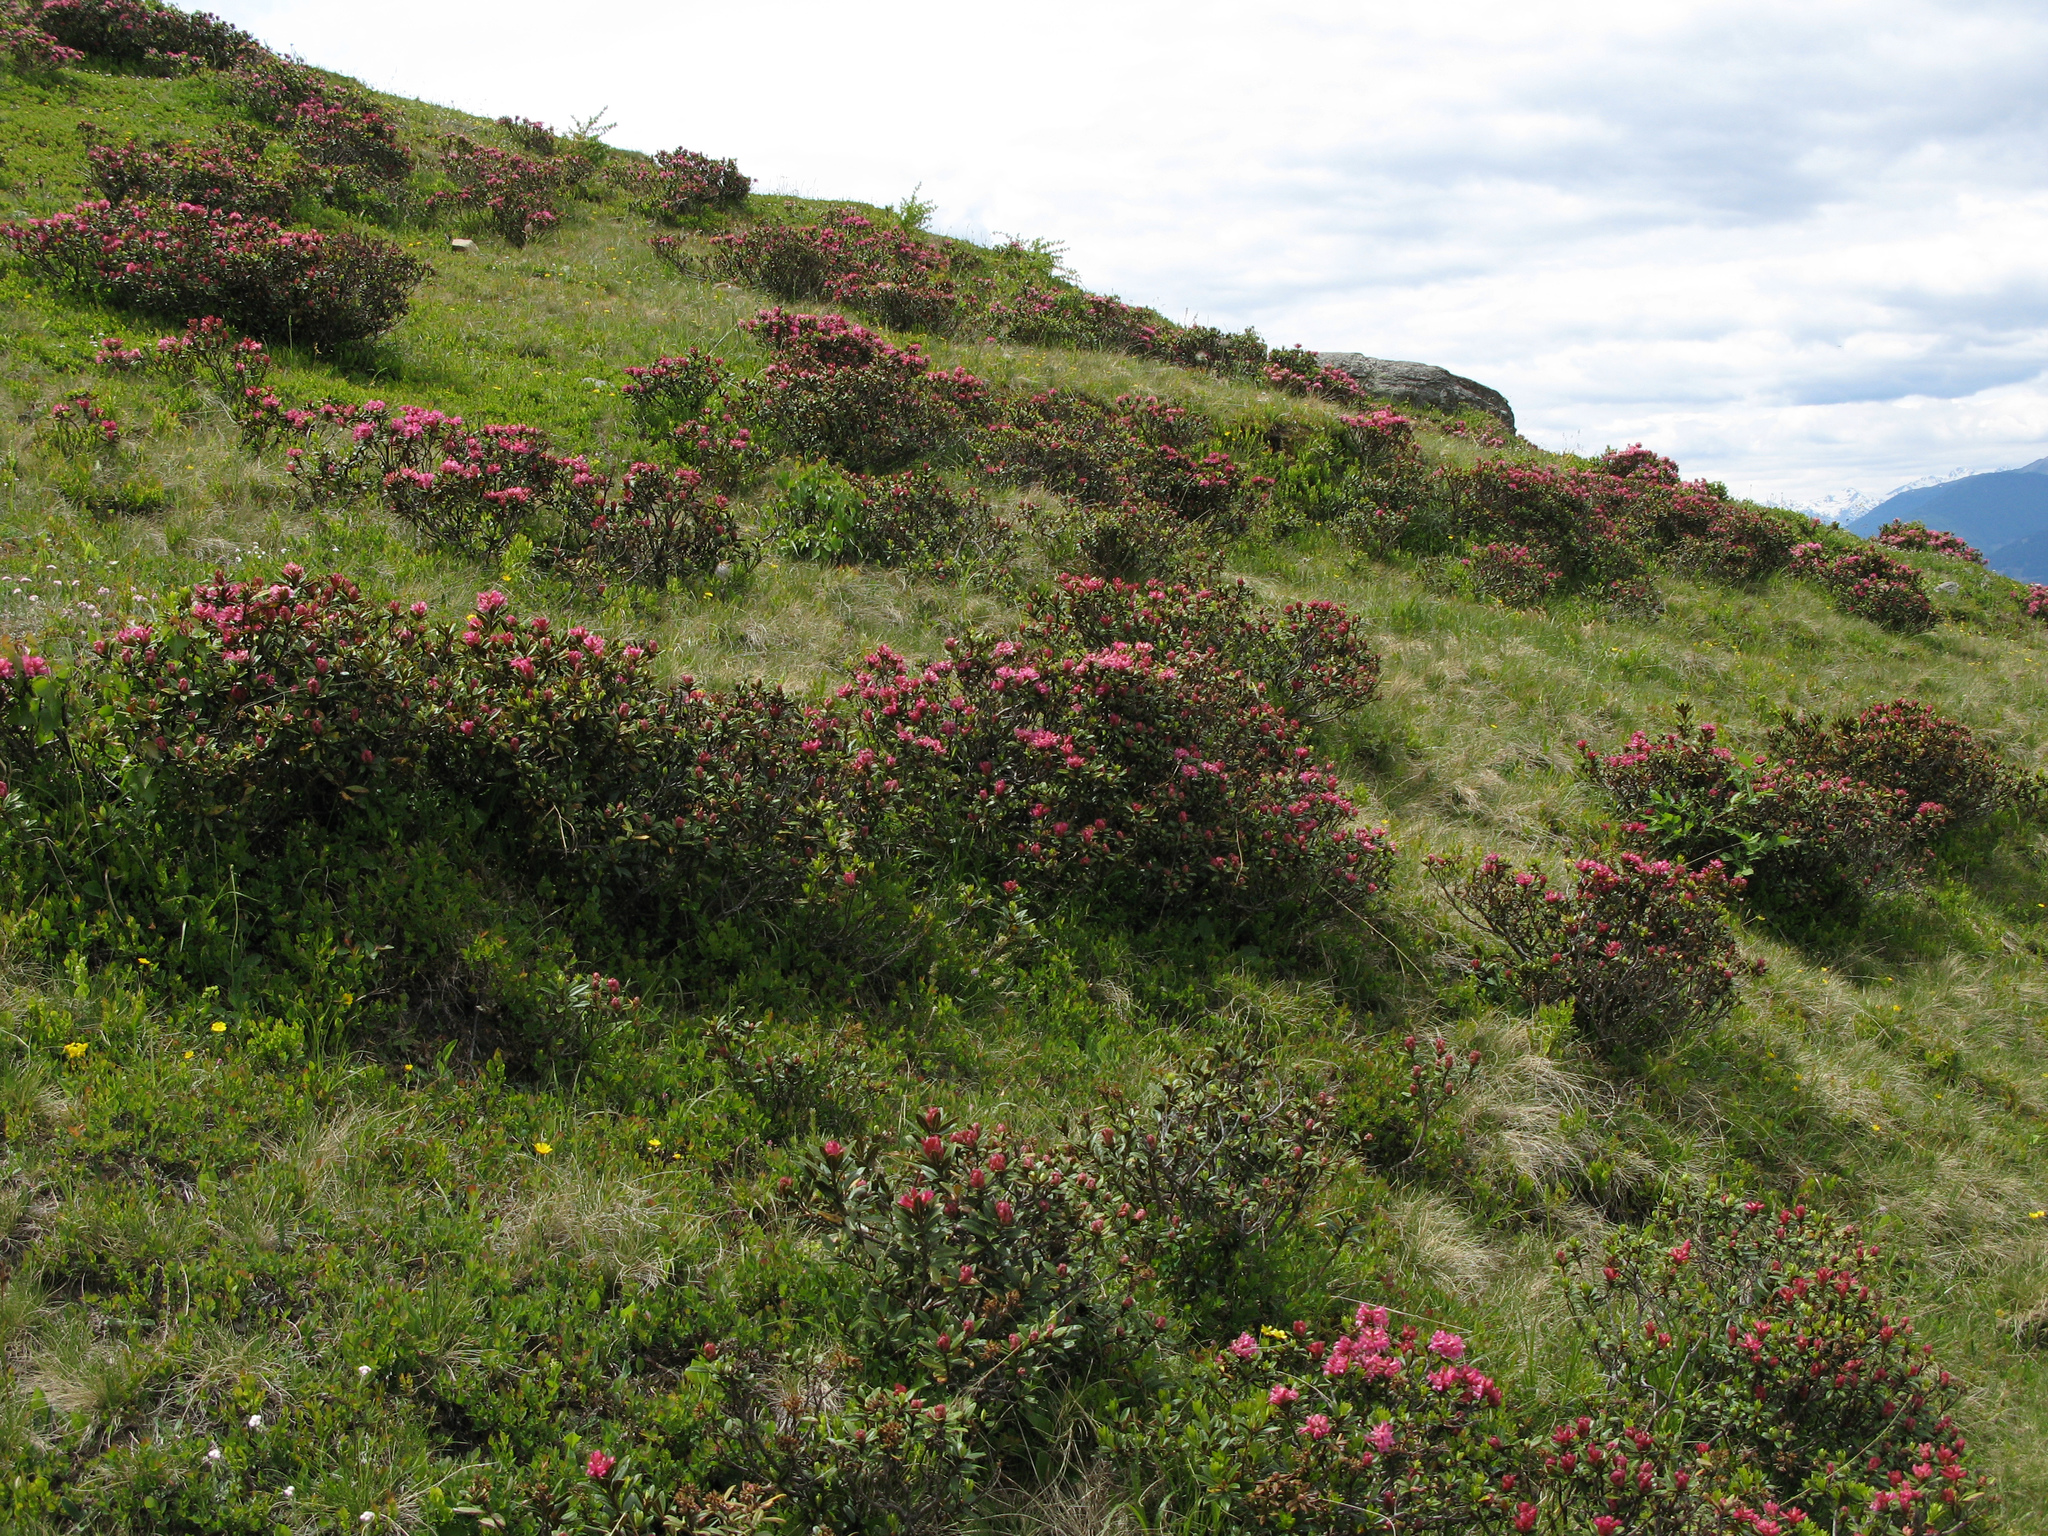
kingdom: Plantae
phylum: Tracheophyta
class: Magnoliopsida
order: Ericales
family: Ericaceae
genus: Rhododendron
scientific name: Rhododendron ferrugineum
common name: Alpenrose
